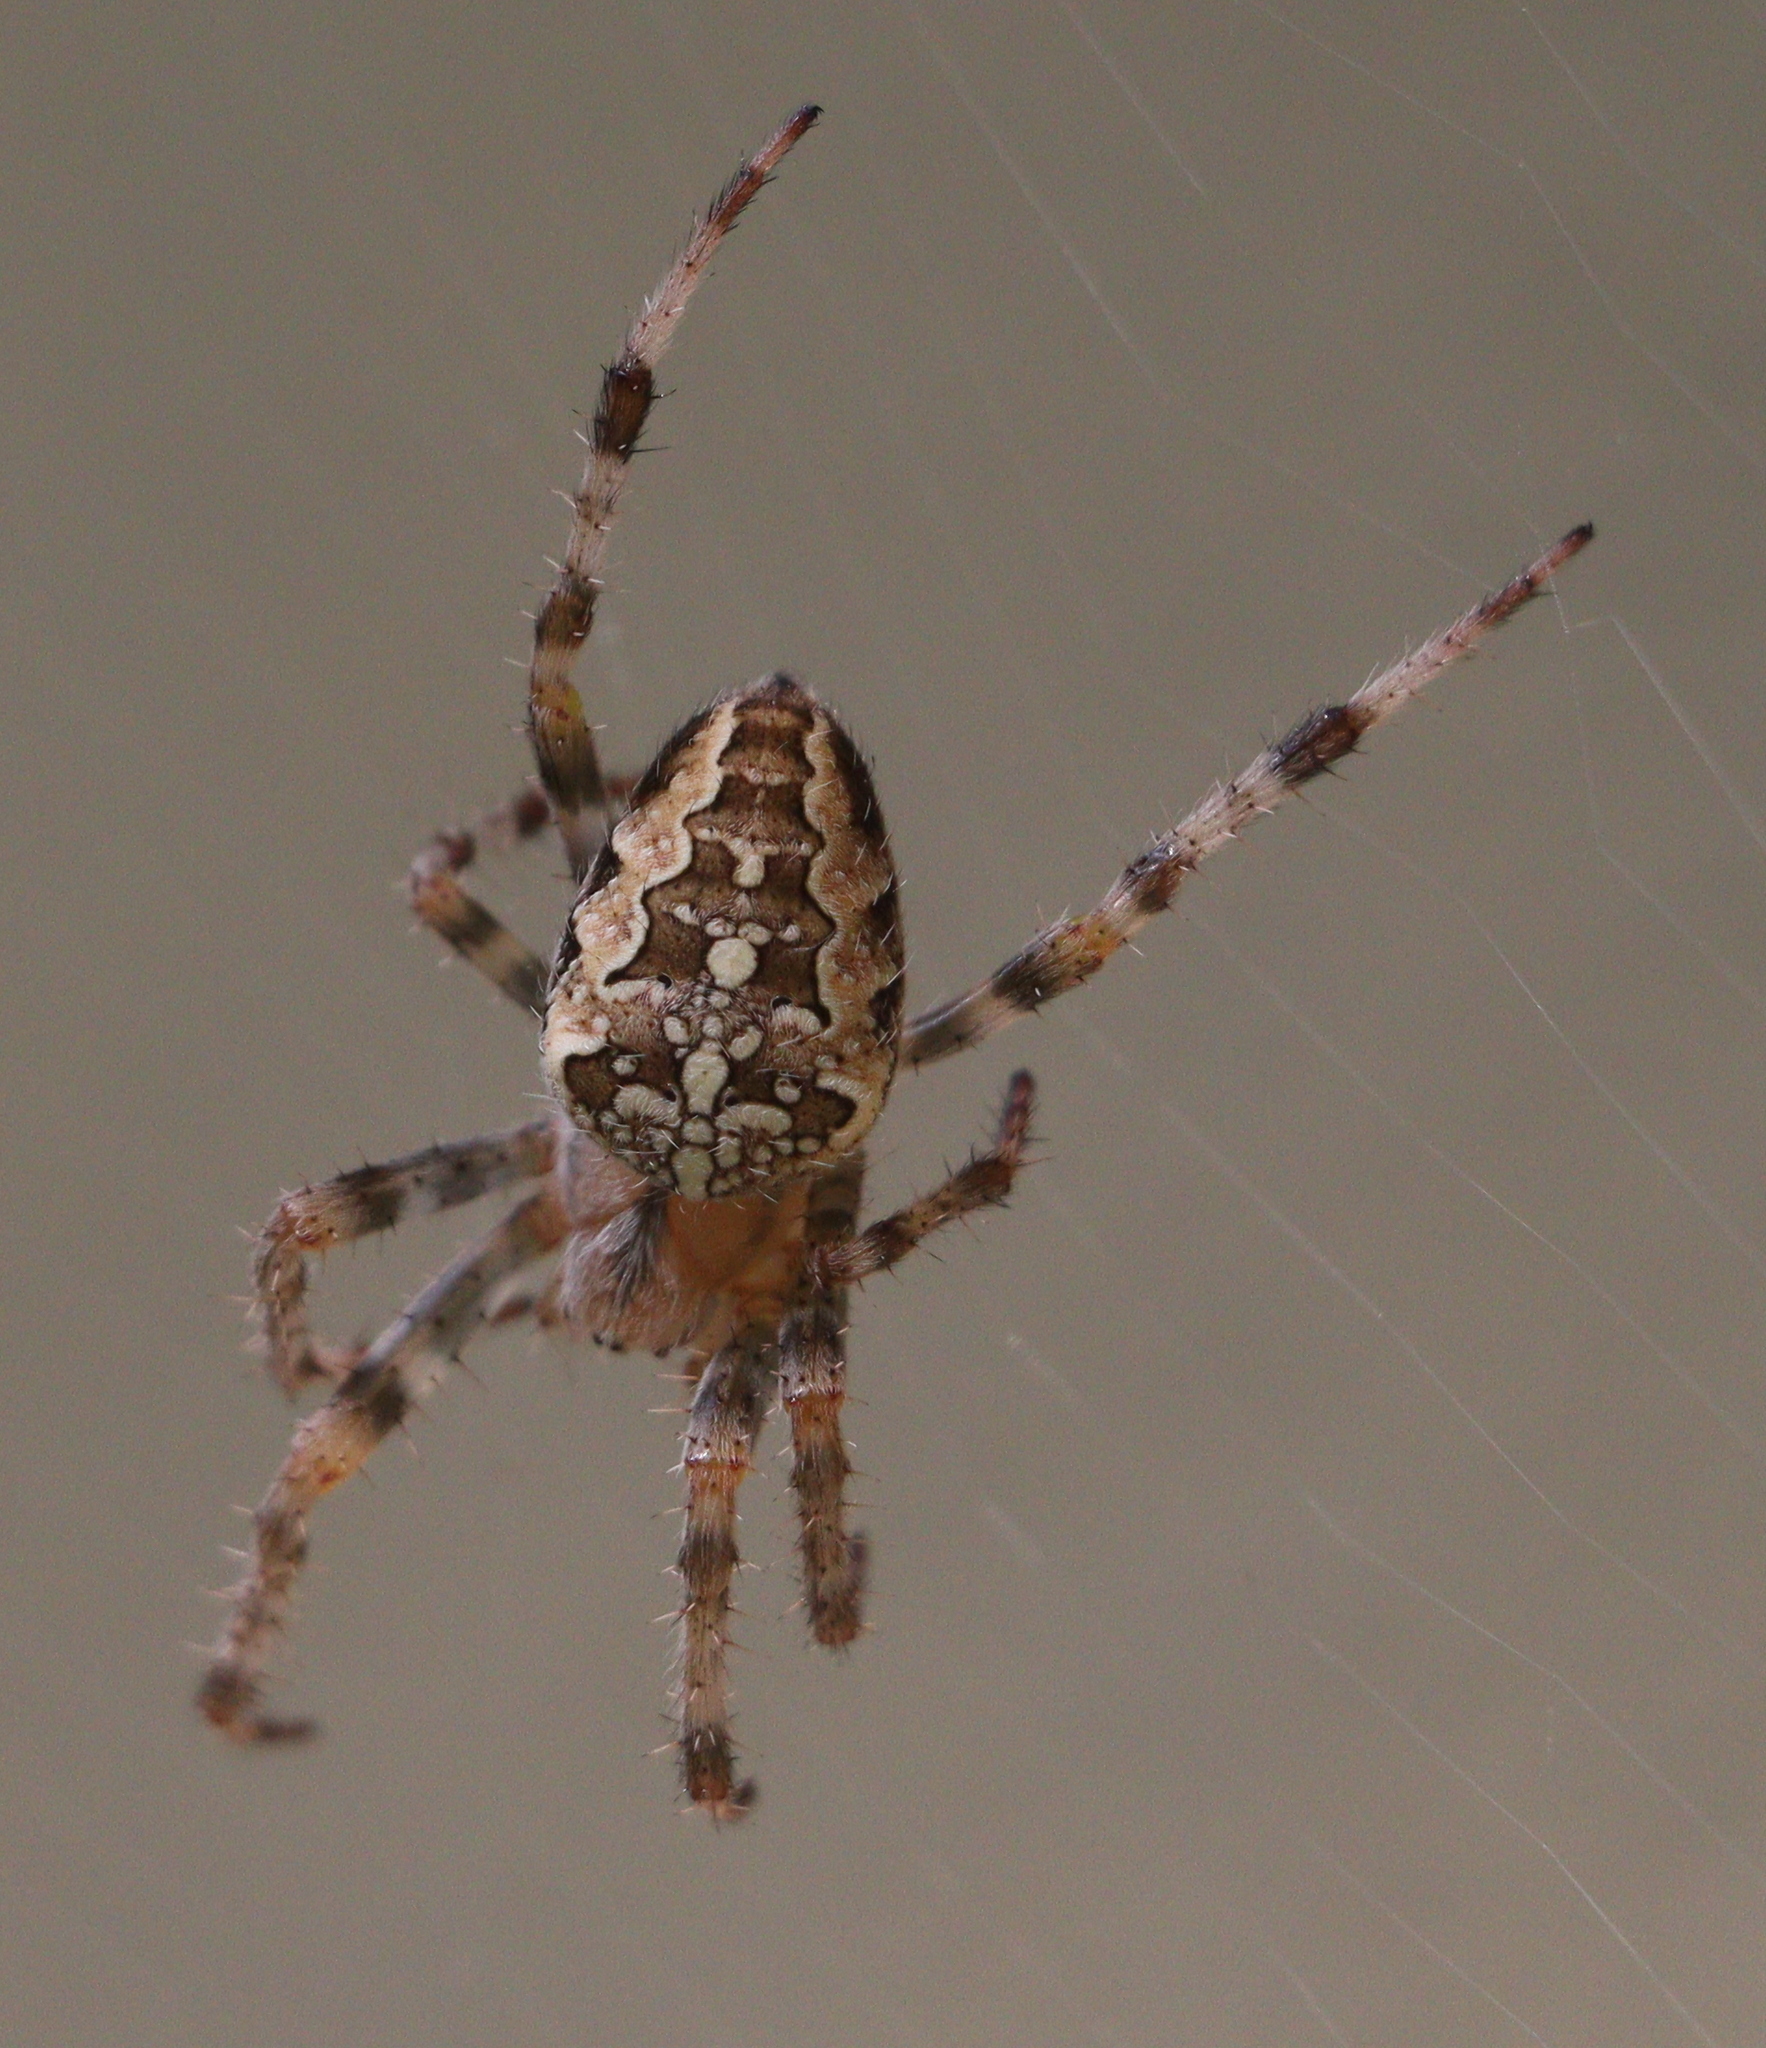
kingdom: Animalia
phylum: Arthropoda
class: Arachnida
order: Araneae
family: Araneidae
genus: Araneus
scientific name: Araneus diadematus
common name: Cross orbweaver
